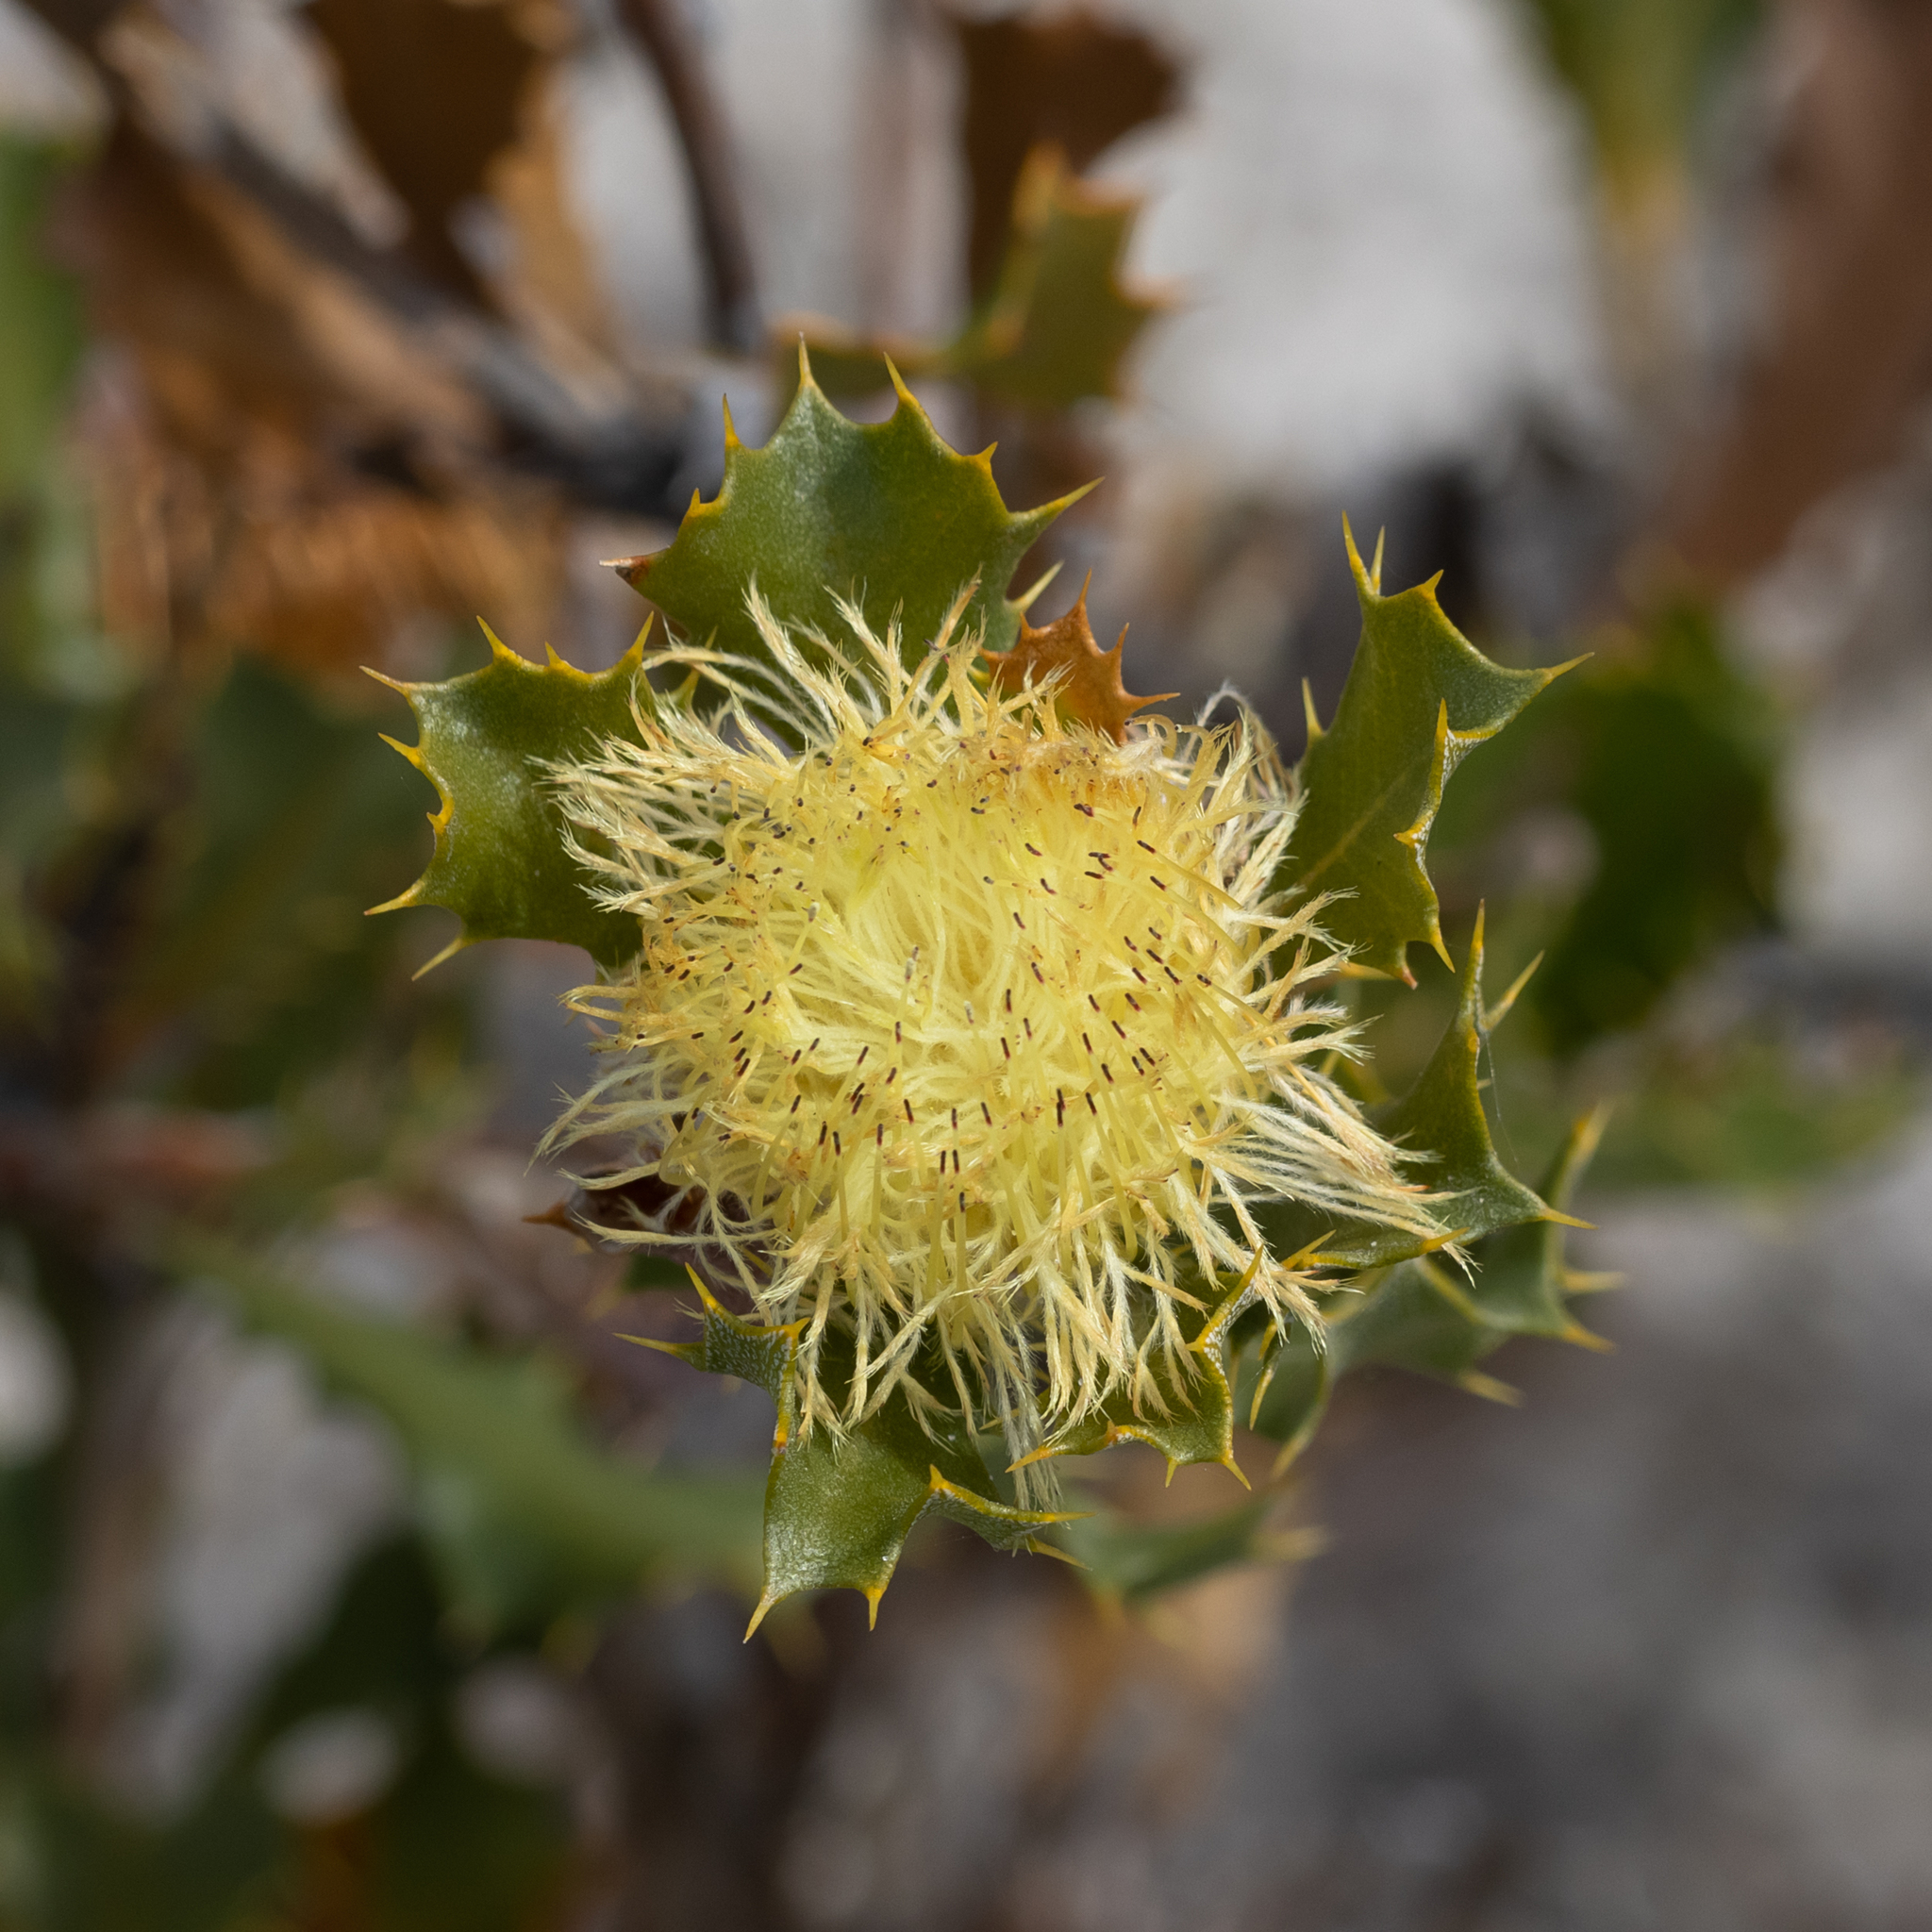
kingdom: Plantae
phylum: Tracheophyta
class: Magnoliopsida
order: Proteales
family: Proteaceae
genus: Banksia
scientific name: Banksia obovata
